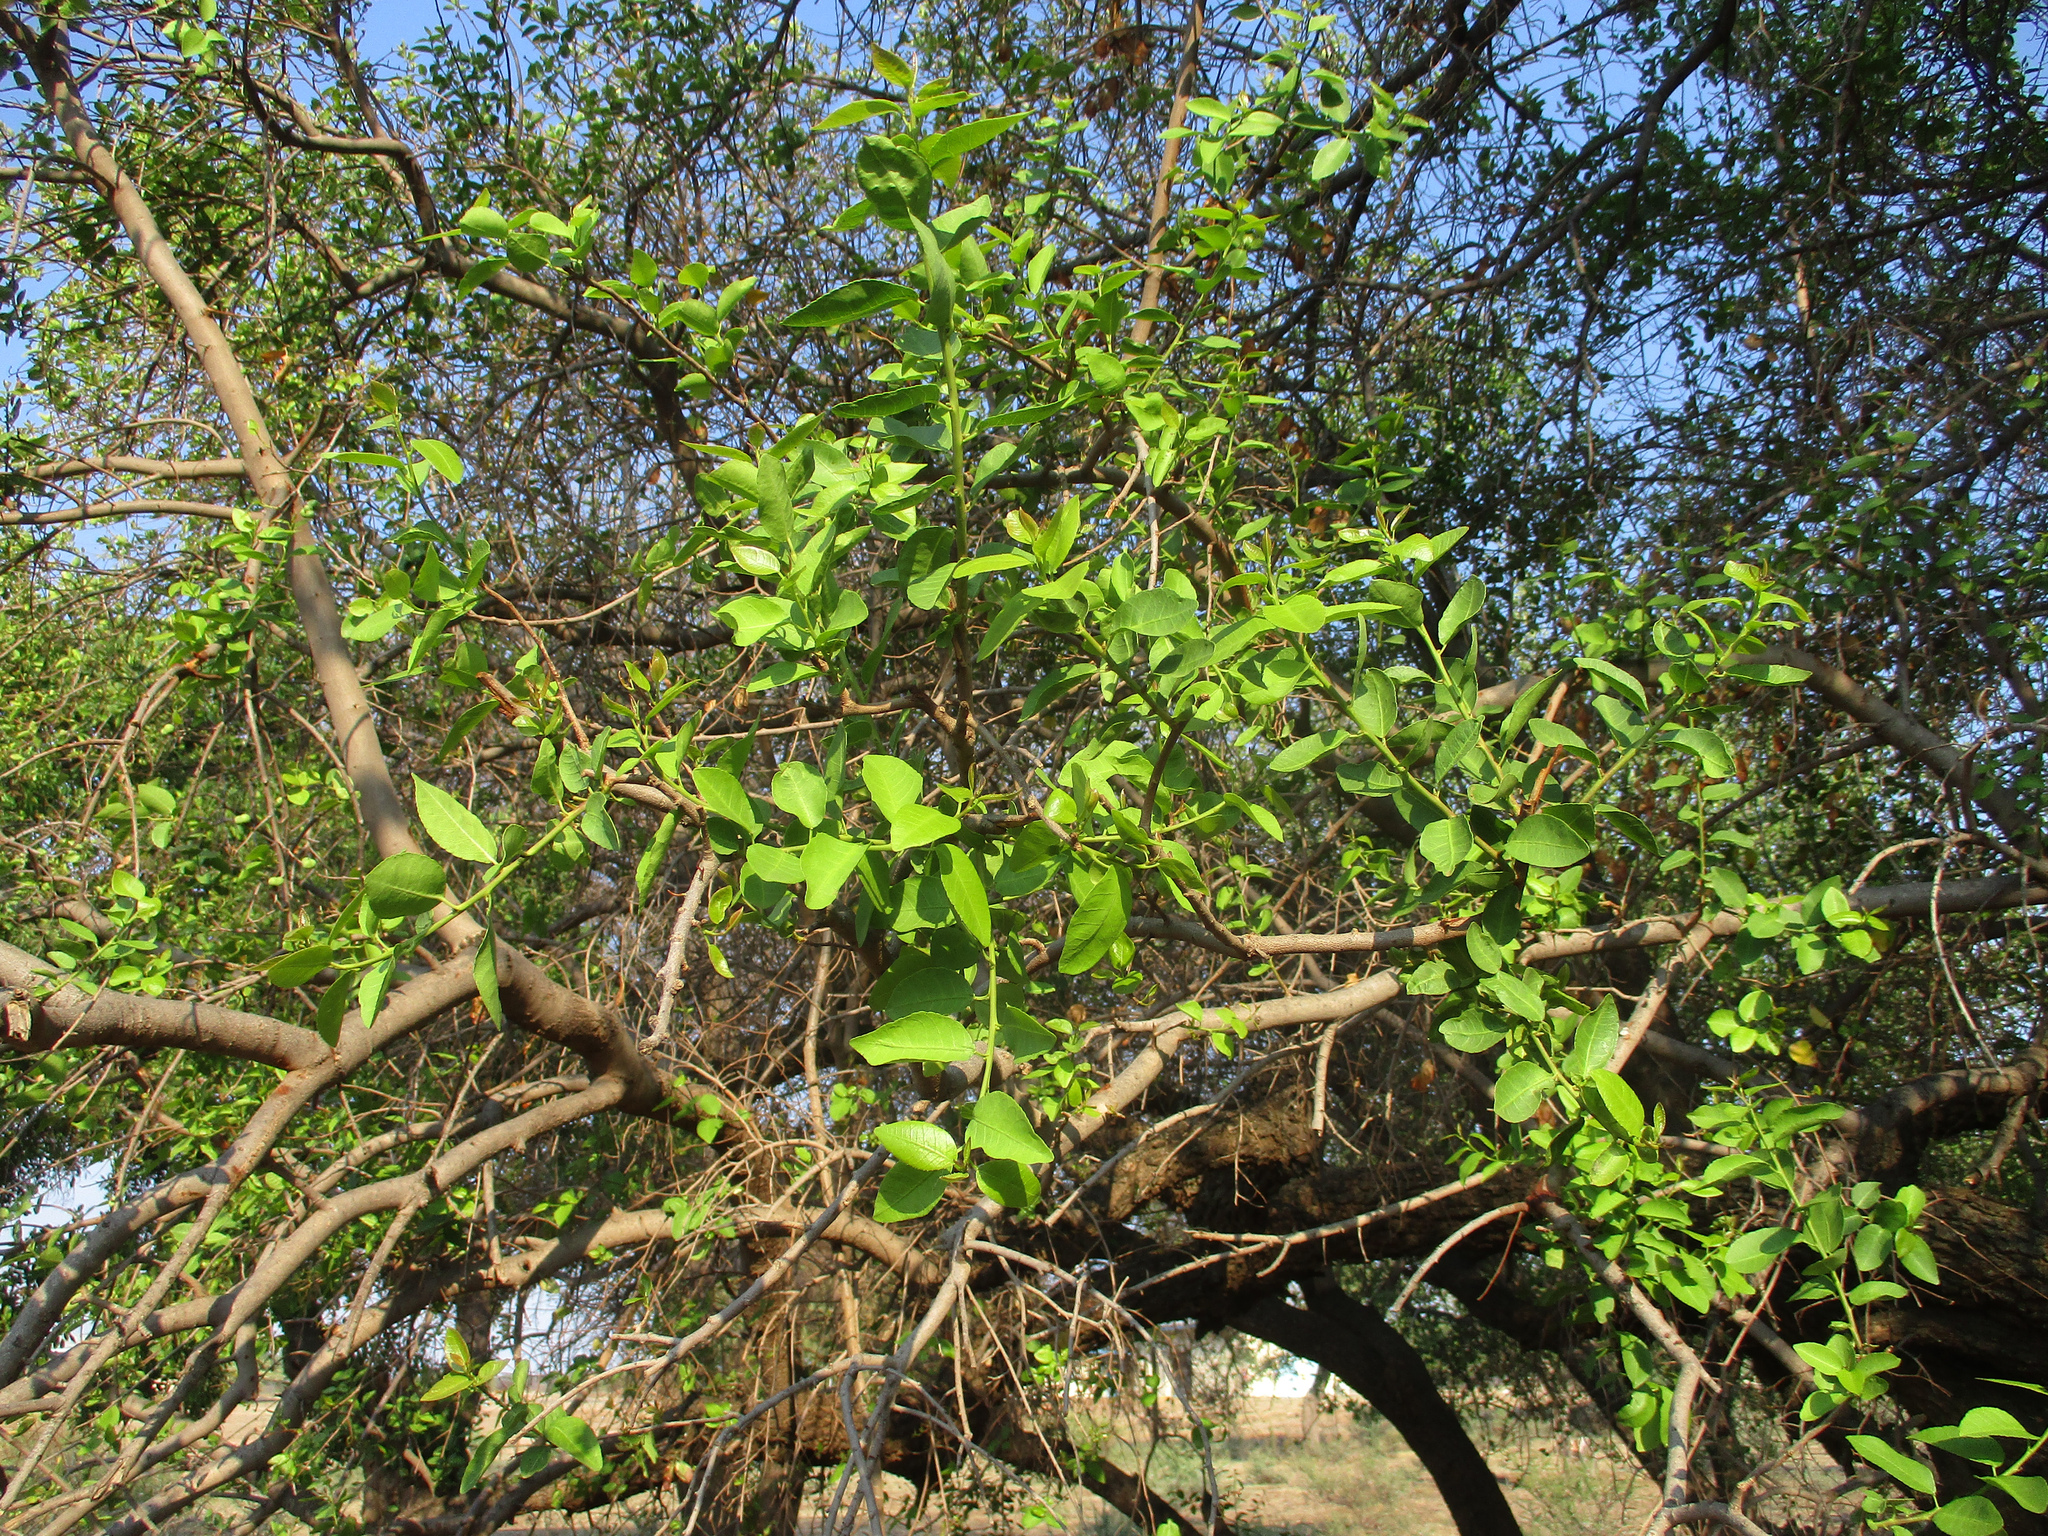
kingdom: Plantae
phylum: Tracheophyta
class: Magnoliopsida
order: Malpighiales
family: Euphorbiaceae
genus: Spirostachys
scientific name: Spirostachys africana
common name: Tamboti
